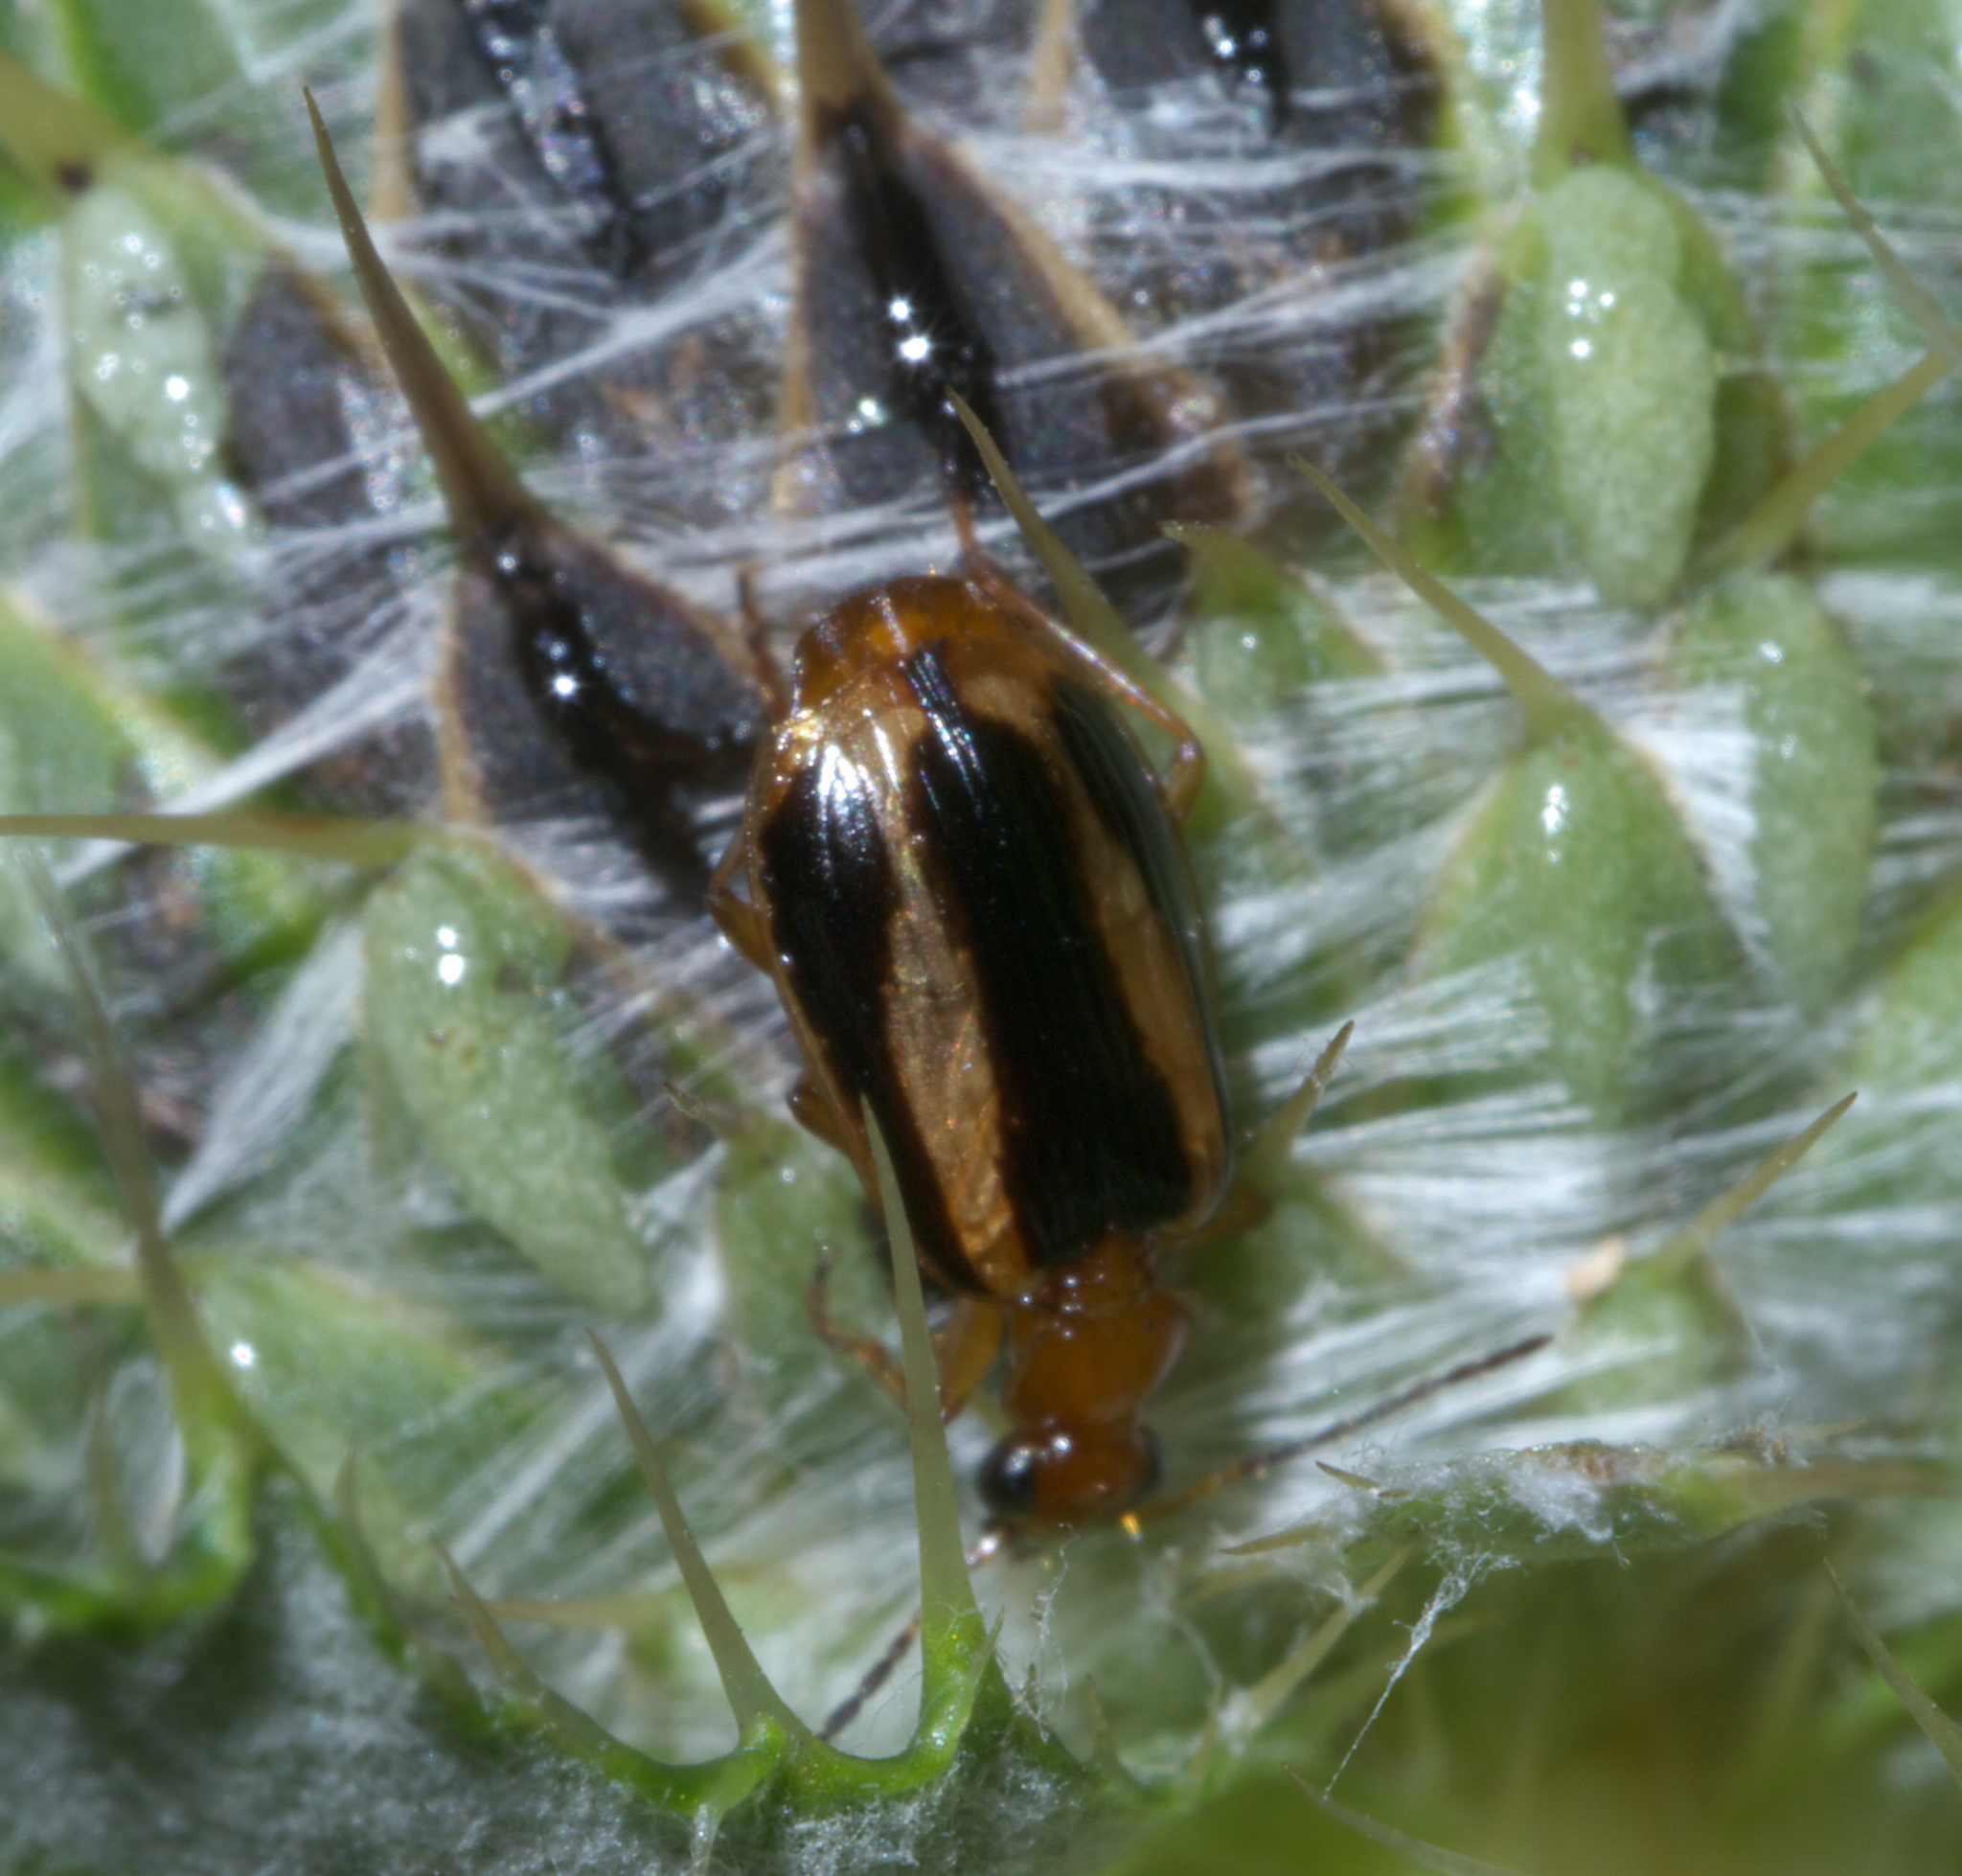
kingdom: Animalia
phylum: Arthropoda
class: Insecta
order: Coleoptera
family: Carabidae
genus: Lebia
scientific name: Lebia solea
